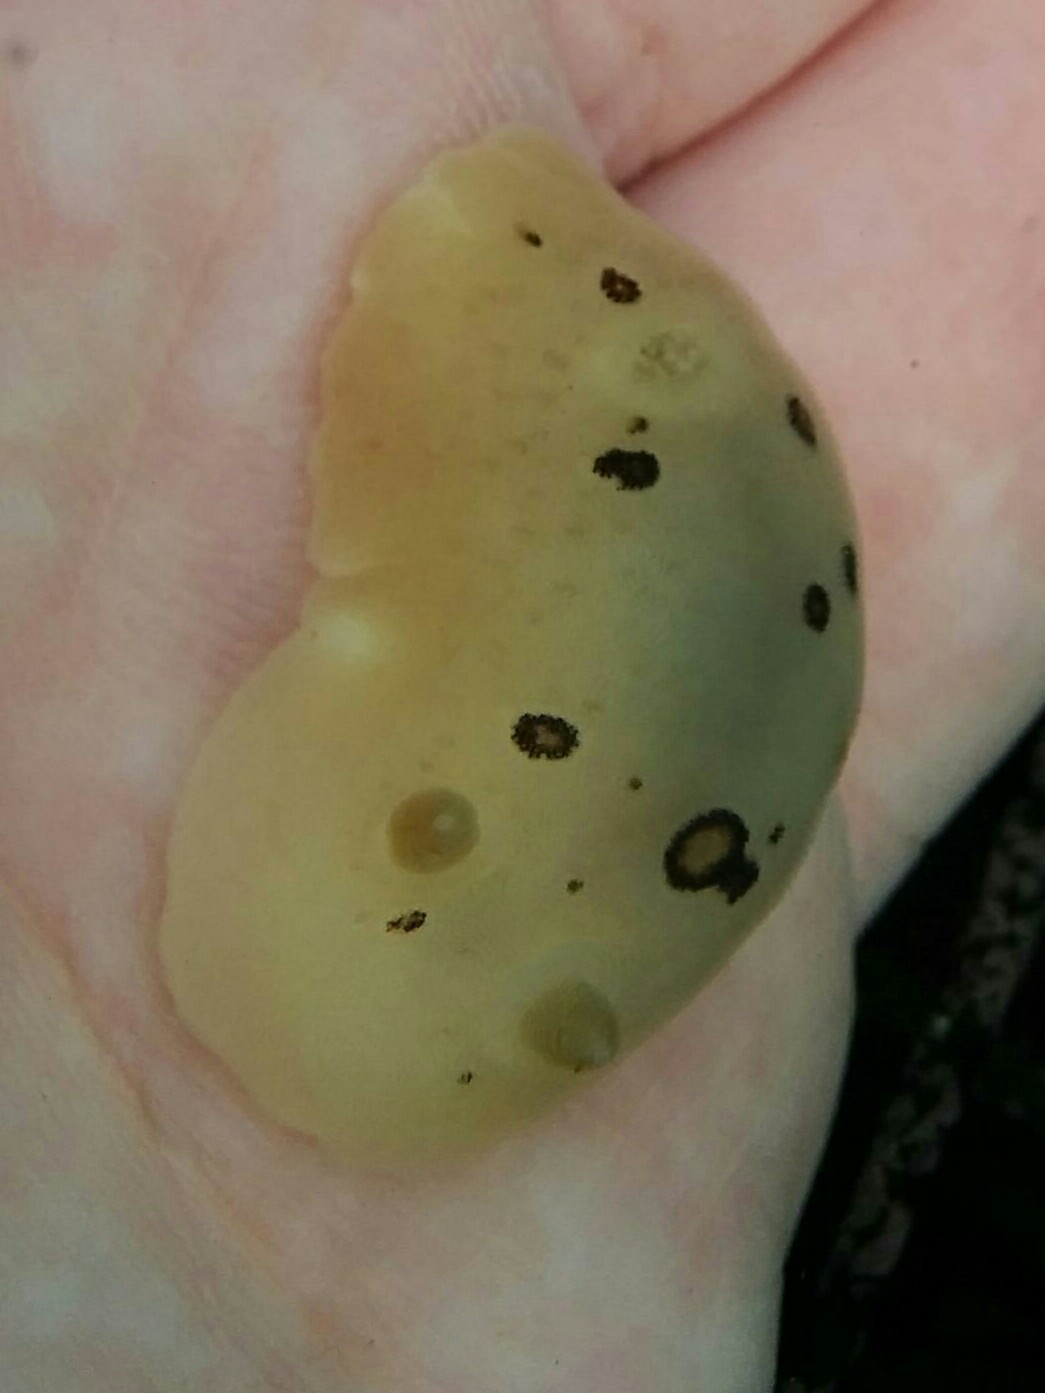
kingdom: Animalia
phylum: Mollusca
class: Gastropoda
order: Nudibranchia
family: Discodorididae
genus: Diaulula
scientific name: Diaulula sandiegensis
